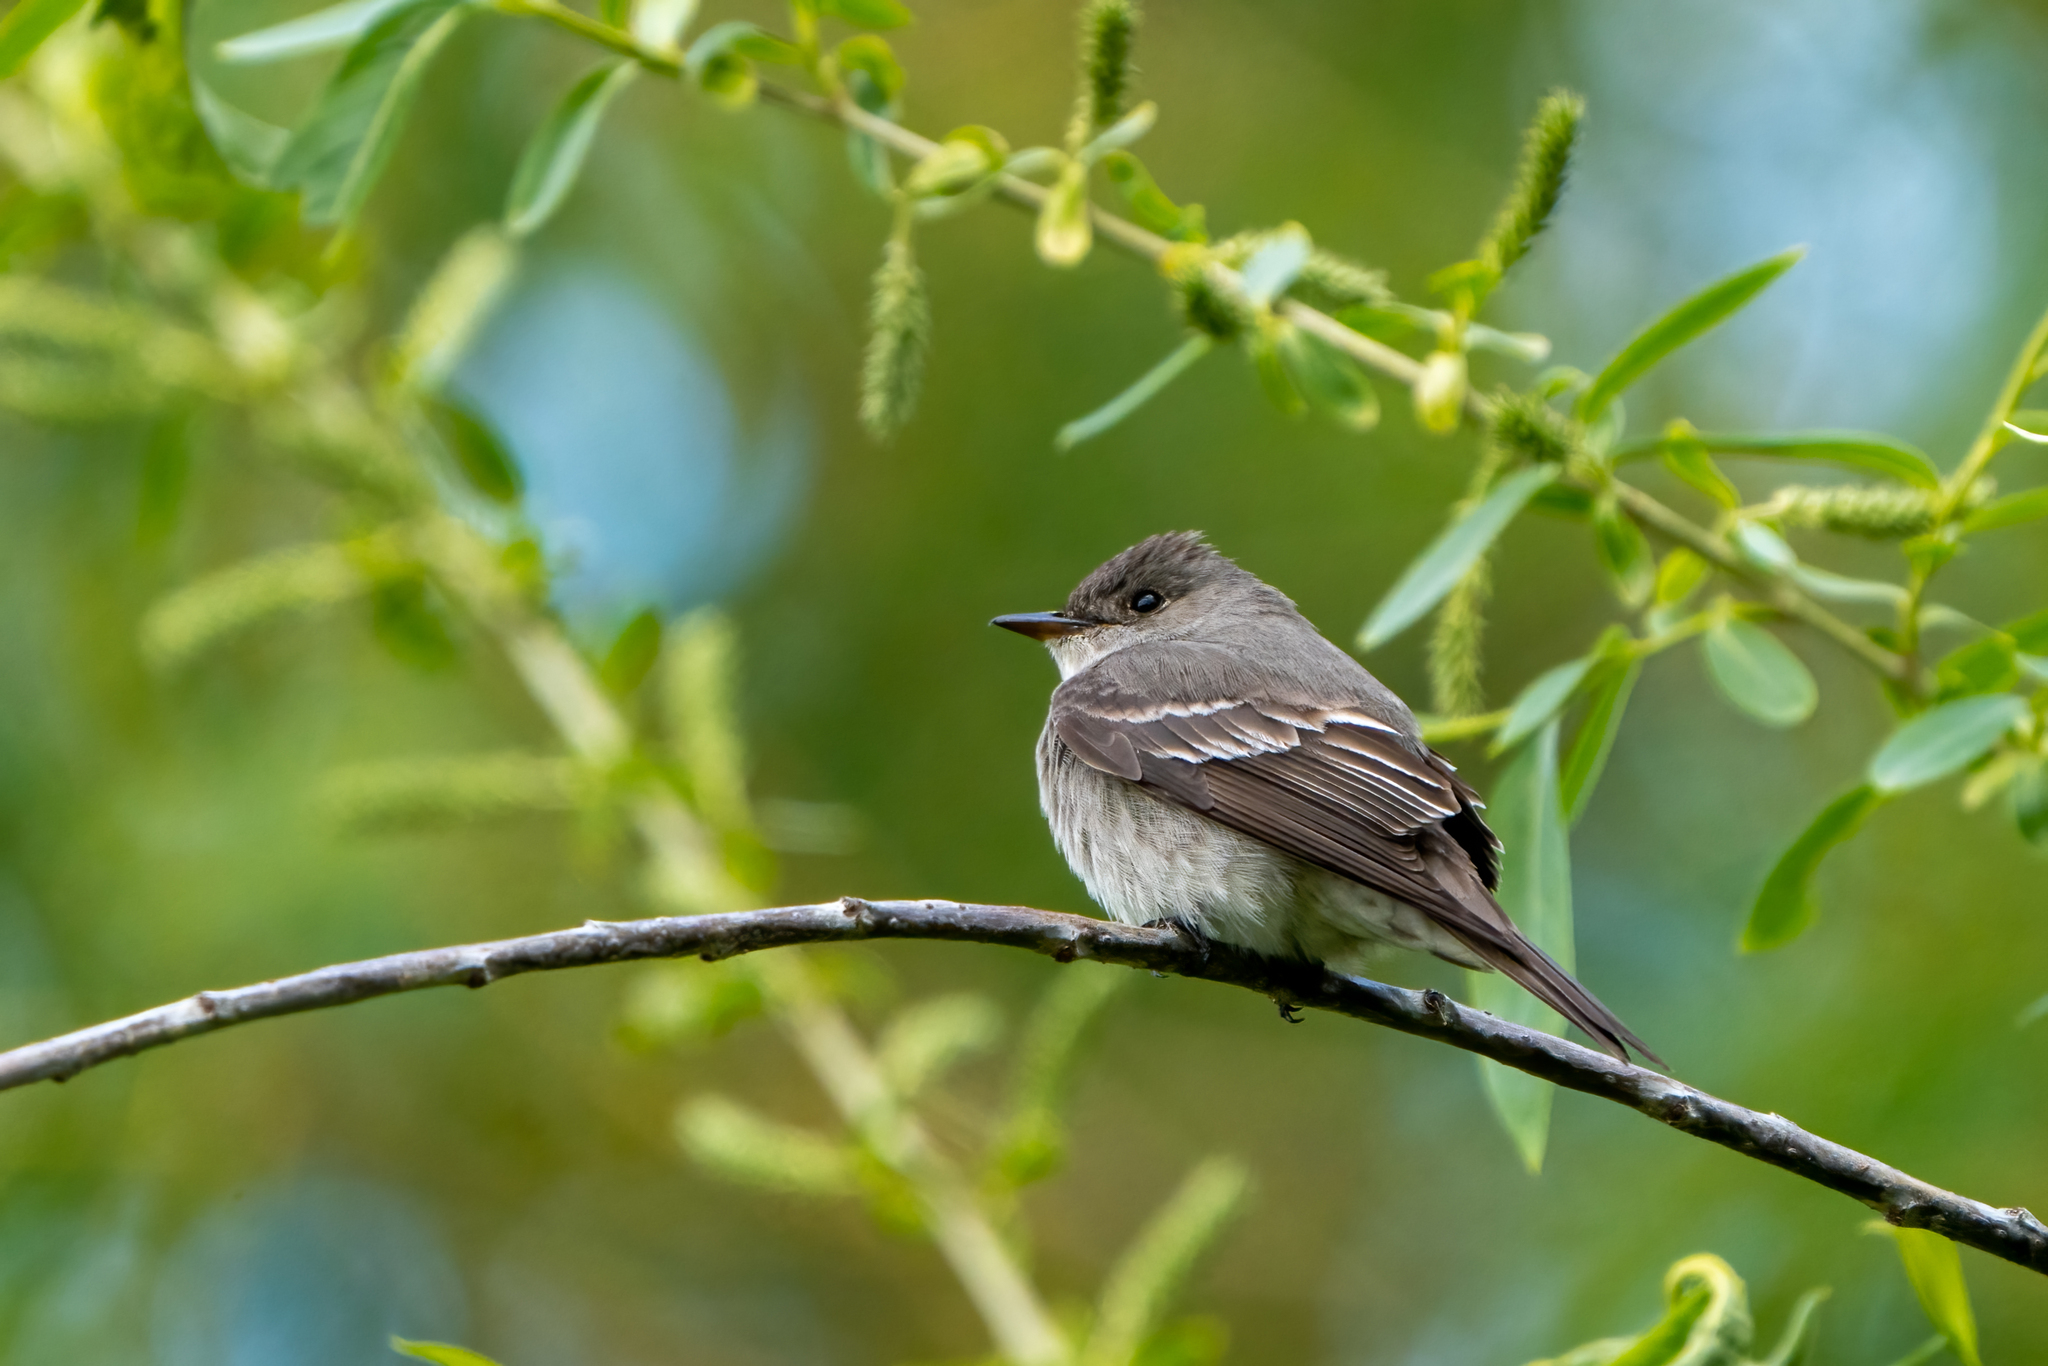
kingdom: Animalia
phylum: Chordata
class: Aves
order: Passeriformes
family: Tyrannidae
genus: Contopus
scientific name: Contopus sordidulus
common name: Western wood-pewee
